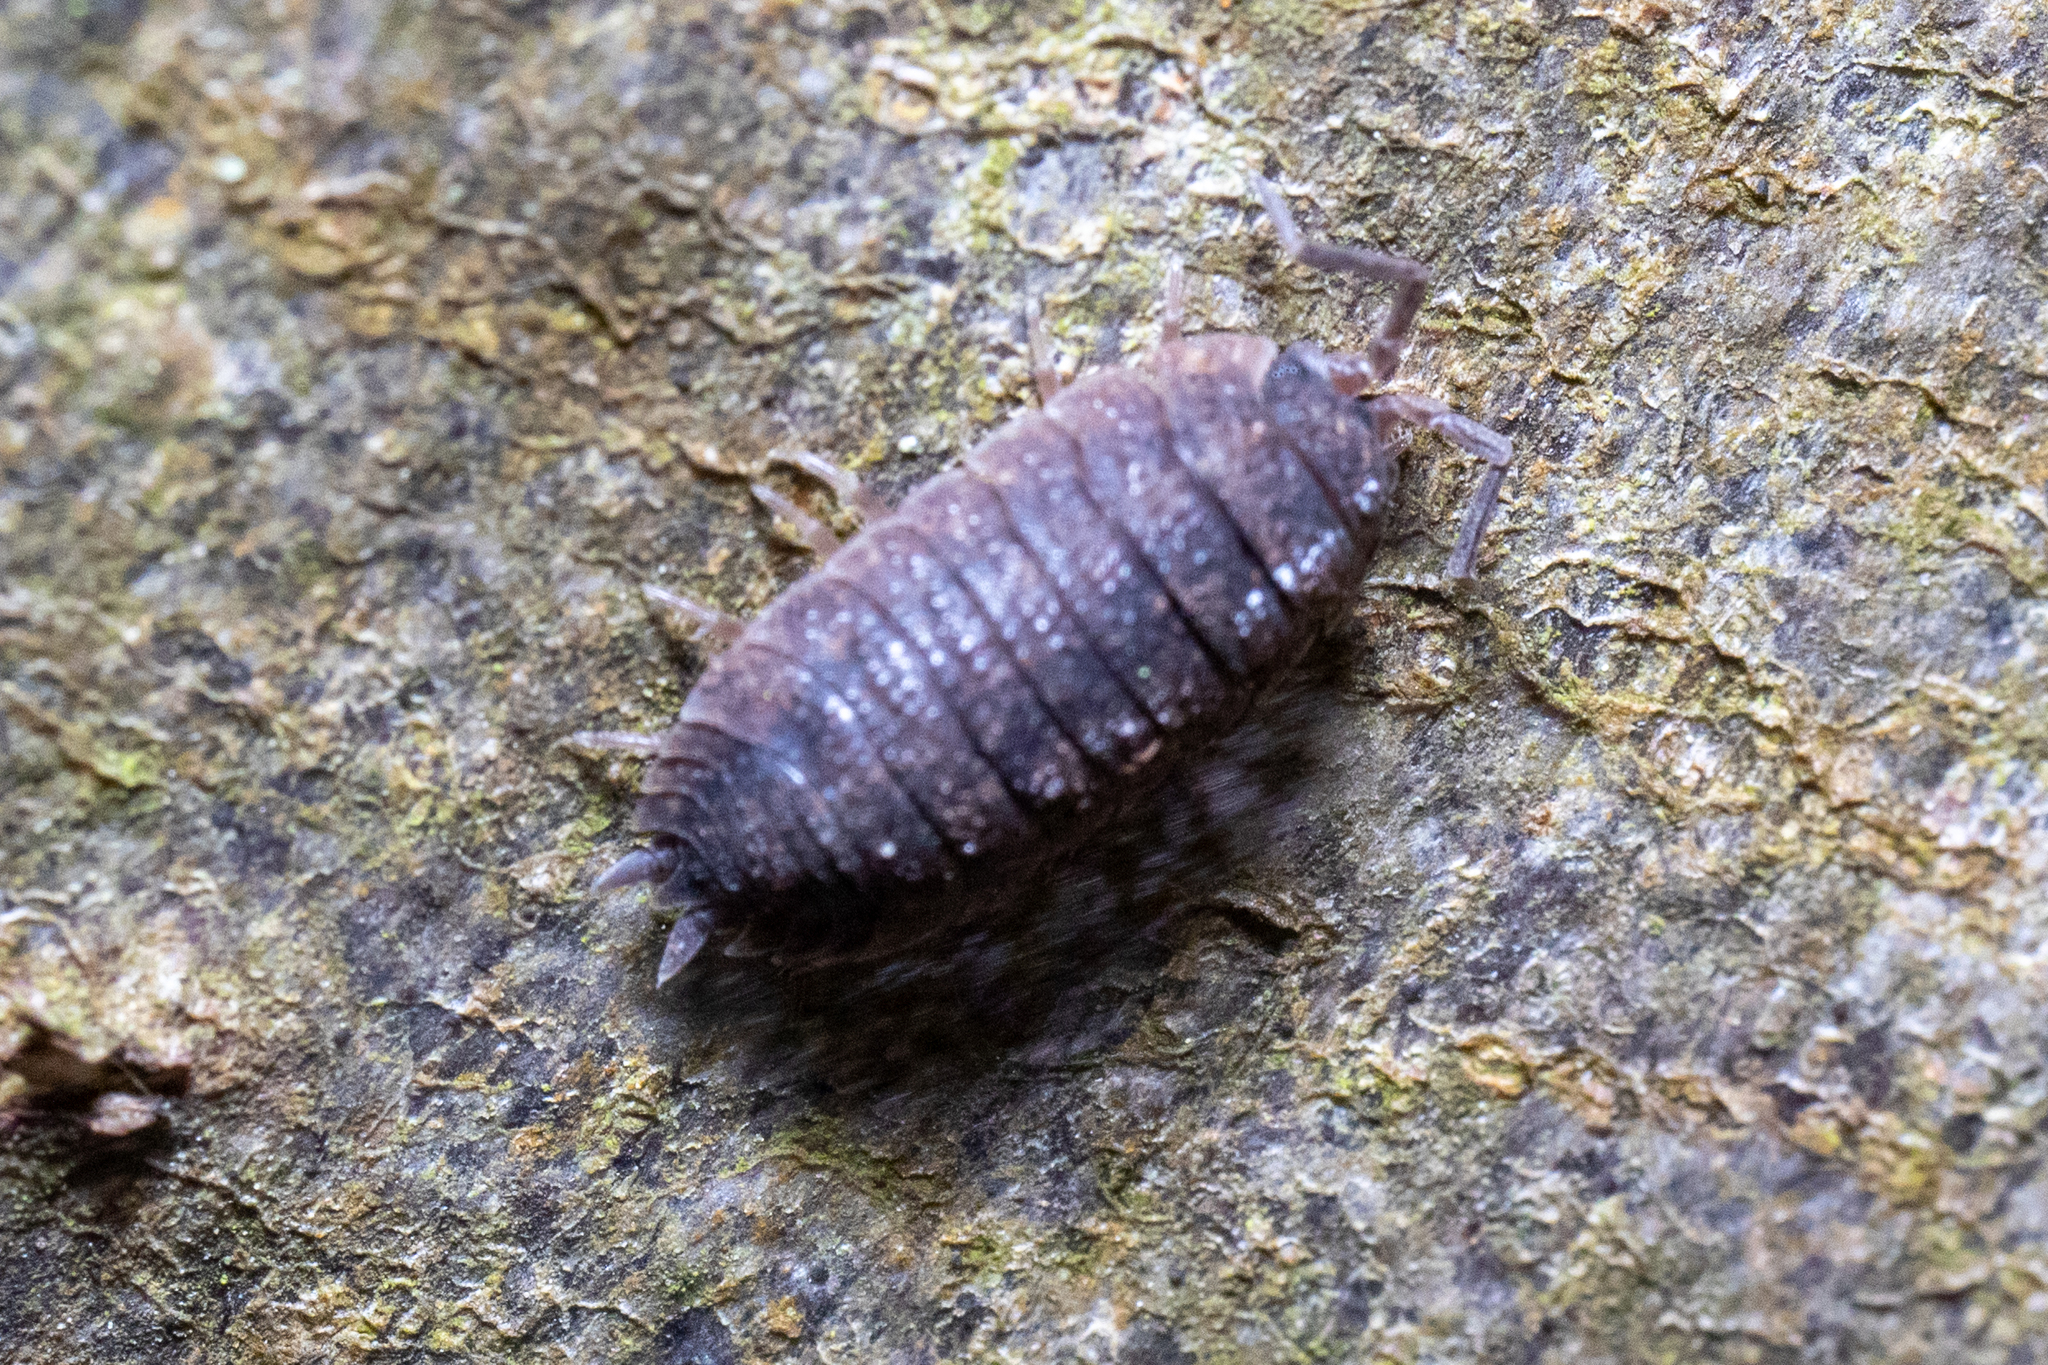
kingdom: Animalia
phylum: Arthropoda
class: Malacostraca
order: Isopoda
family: Porcellionidae
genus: Porcellio
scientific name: Porcellio scaber
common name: Common rough woodlouse
